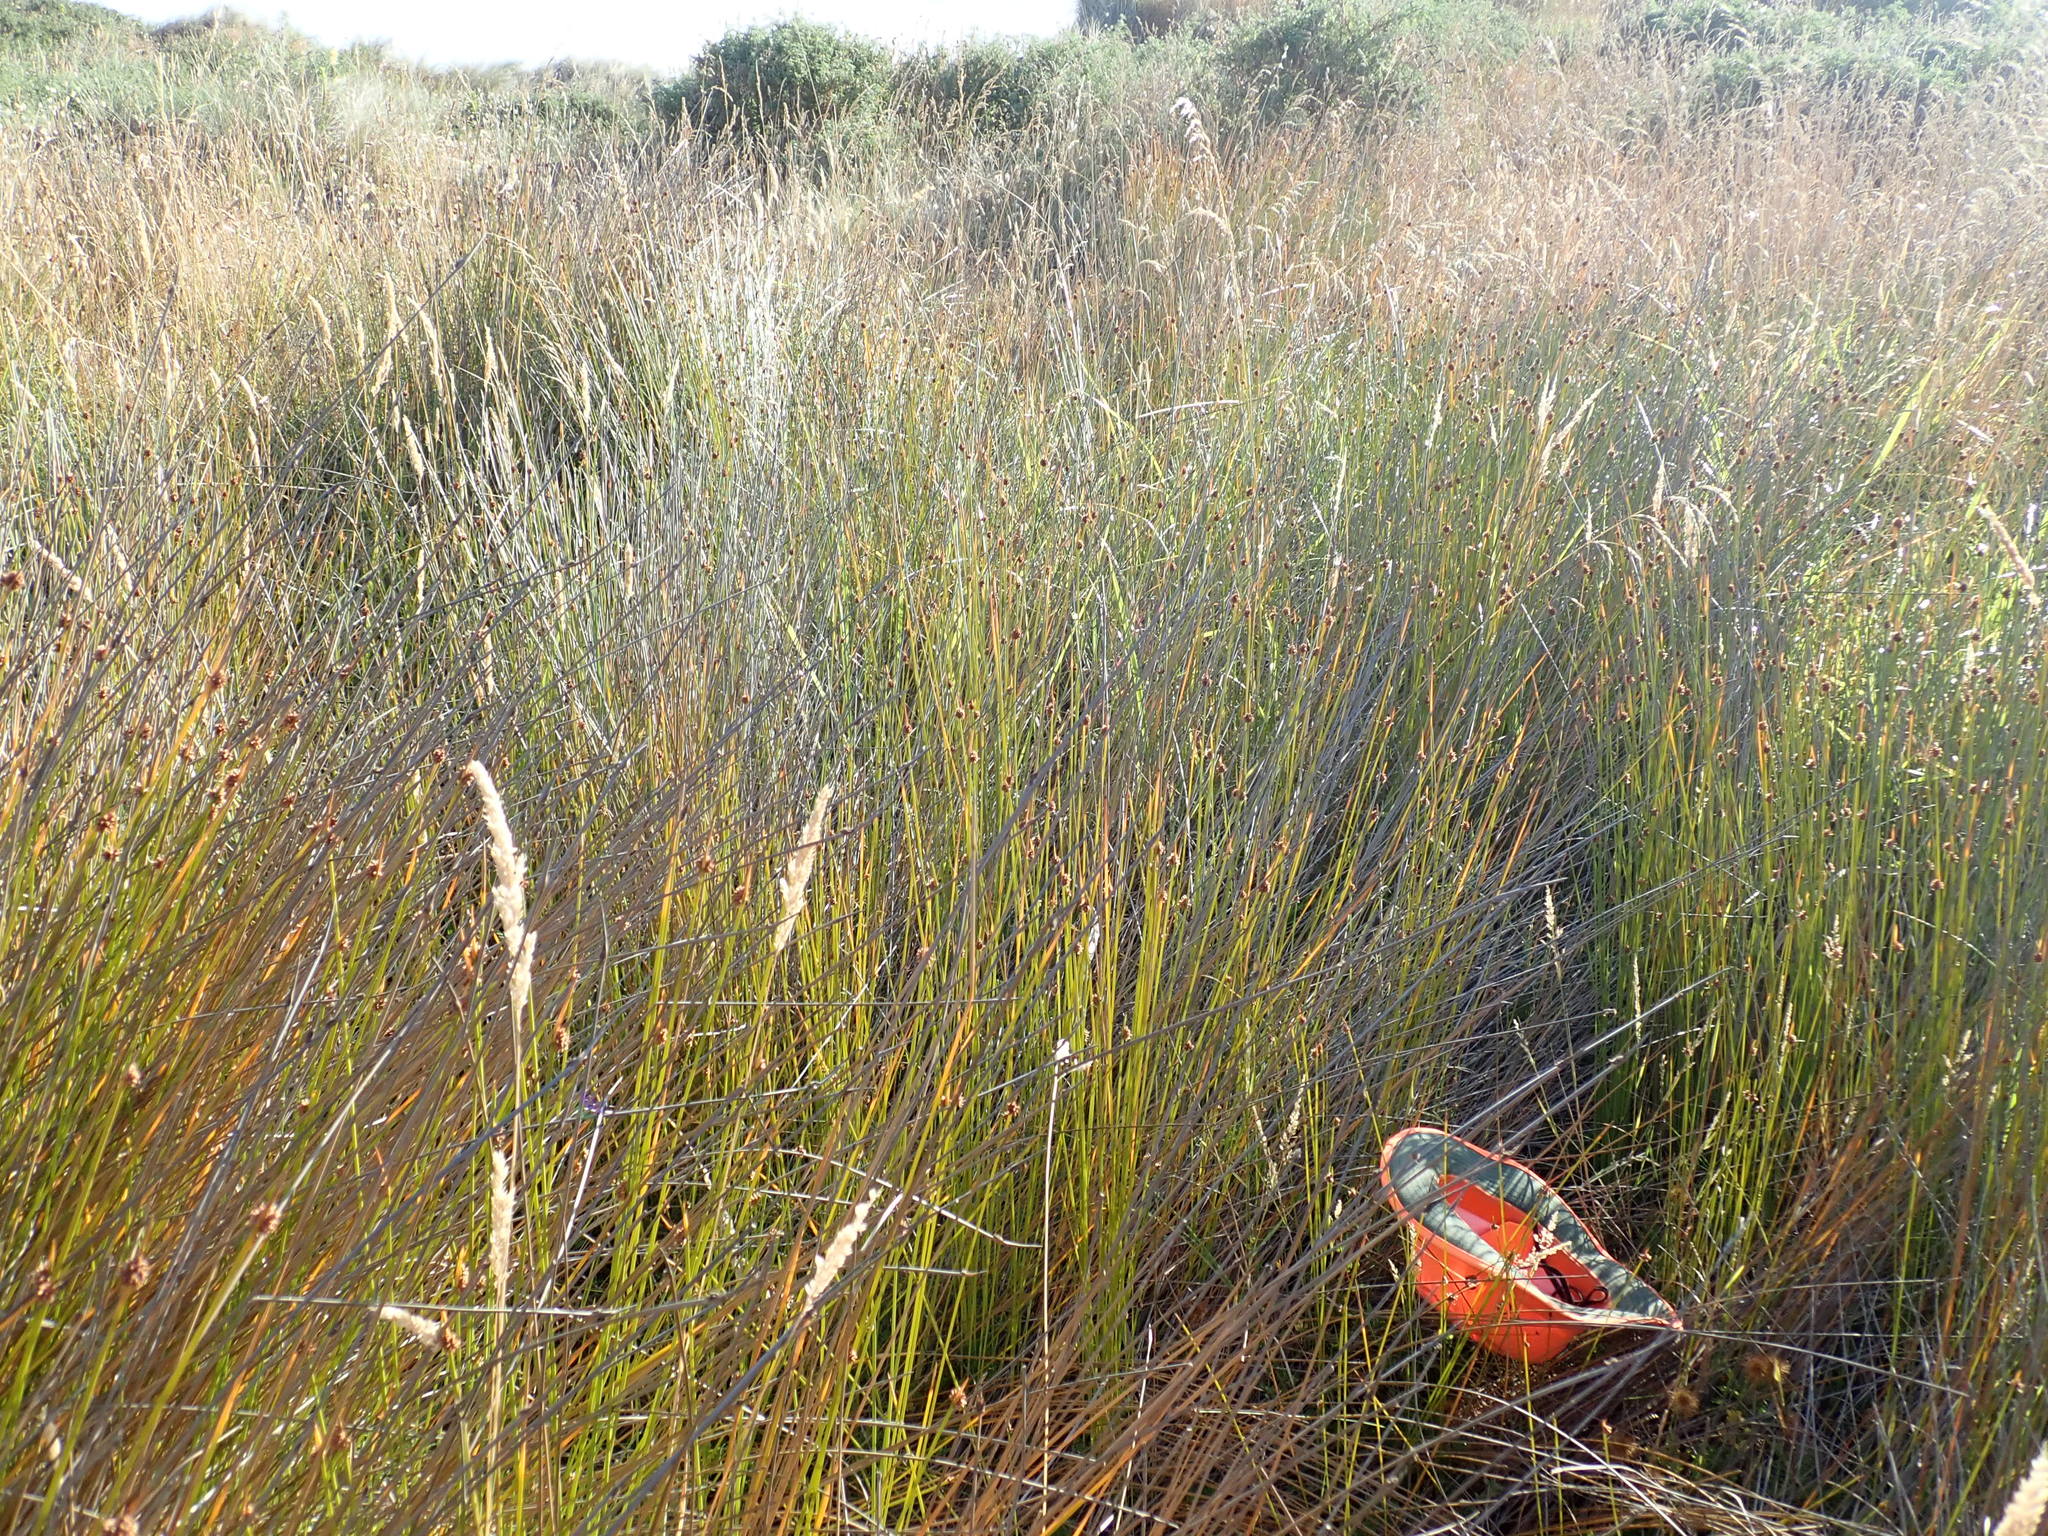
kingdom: Plantae
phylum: Tracheophyta
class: Magnoliopsida
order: Rosales
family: Rosaceae
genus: Acaena
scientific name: Acaena novae-zelandiae
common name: Pirri-pirri-bur
